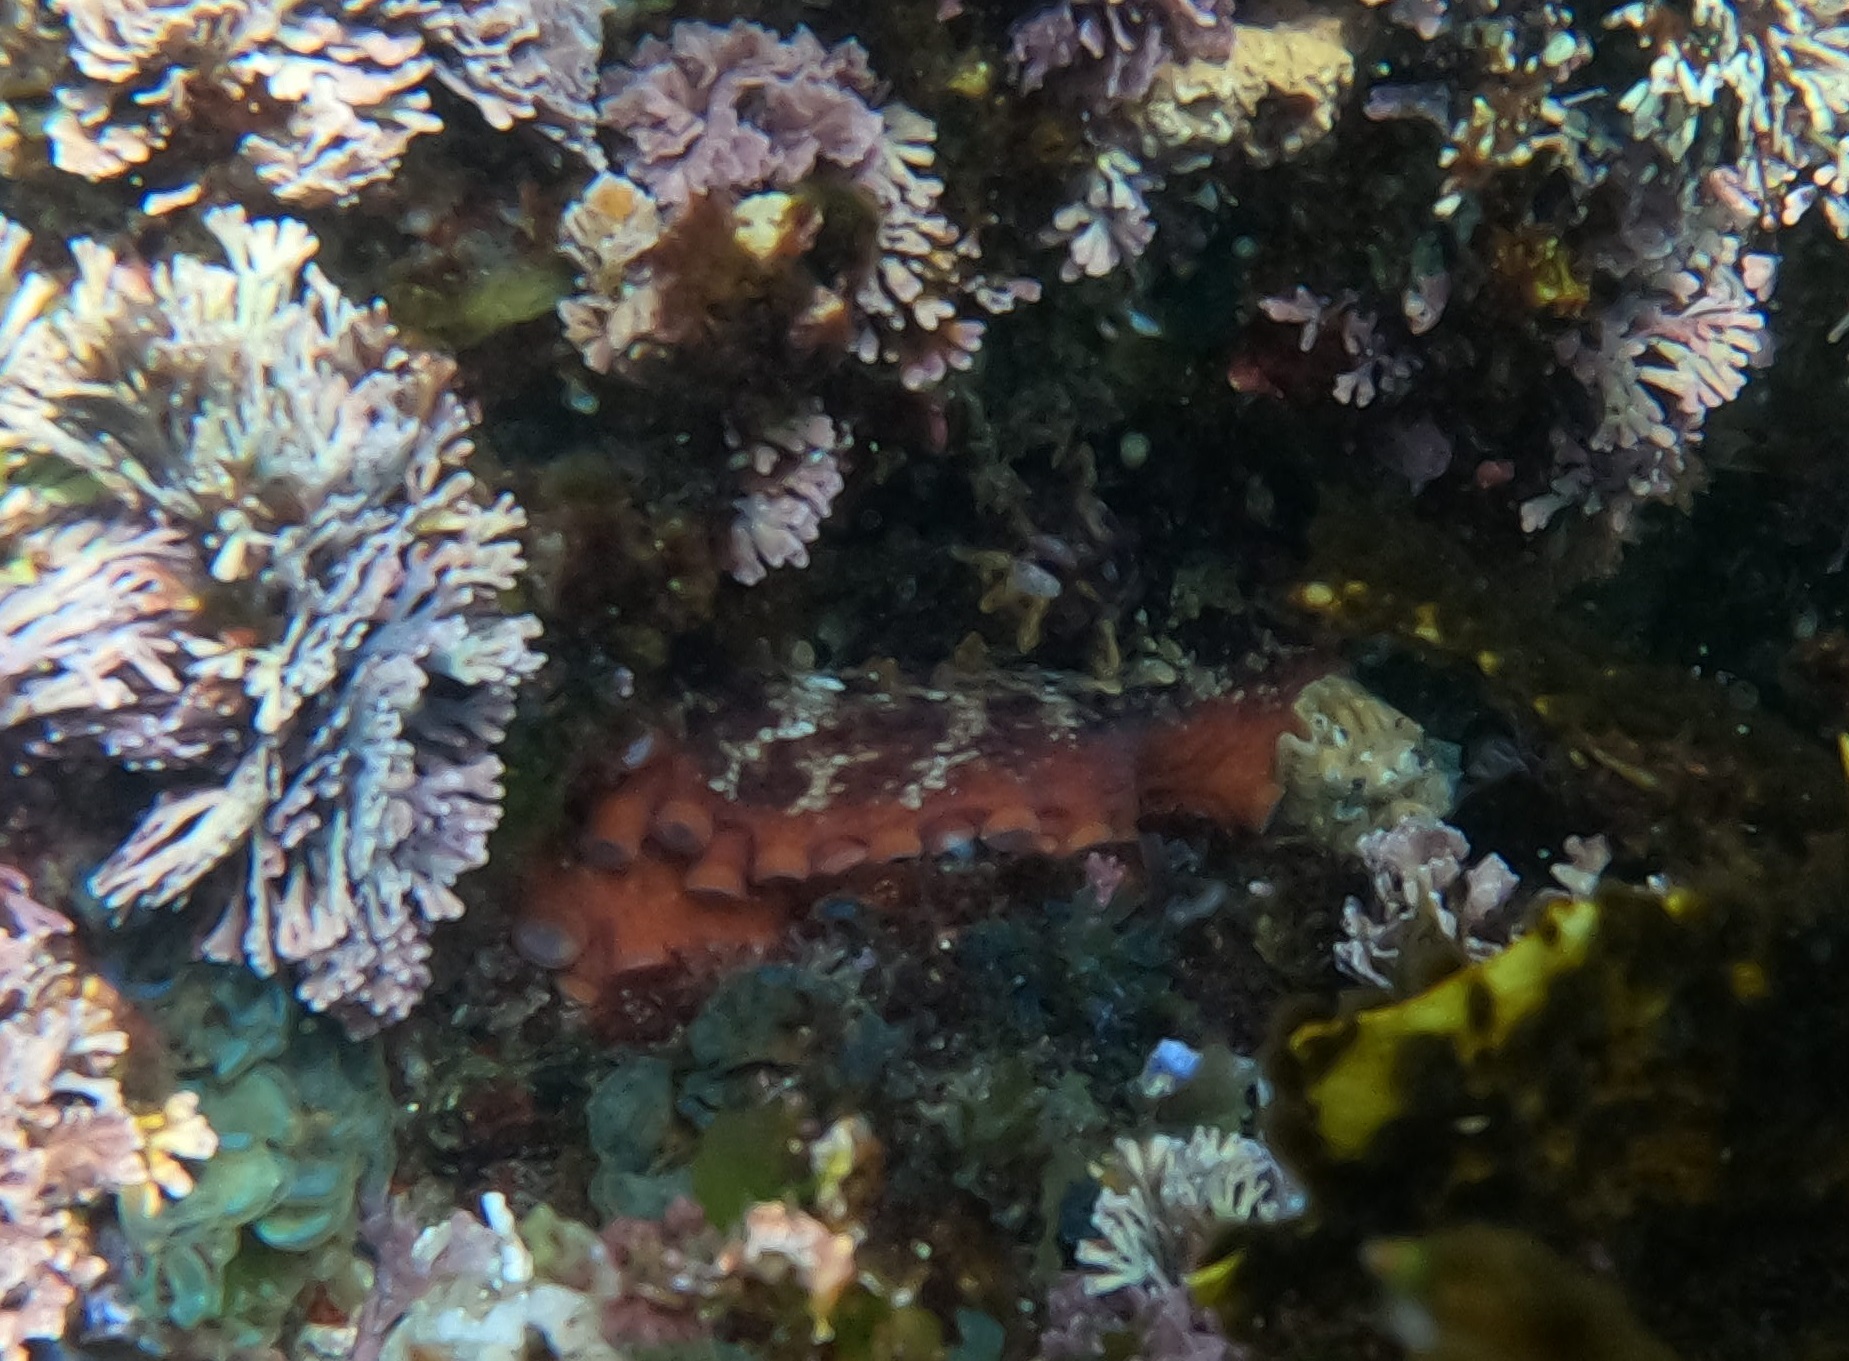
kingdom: Animalia
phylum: Mollusca
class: Cephalopoda
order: Octopoda
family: Octopodidae
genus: Octopus
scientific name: Octopus tetricus
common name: Sydney octopus
